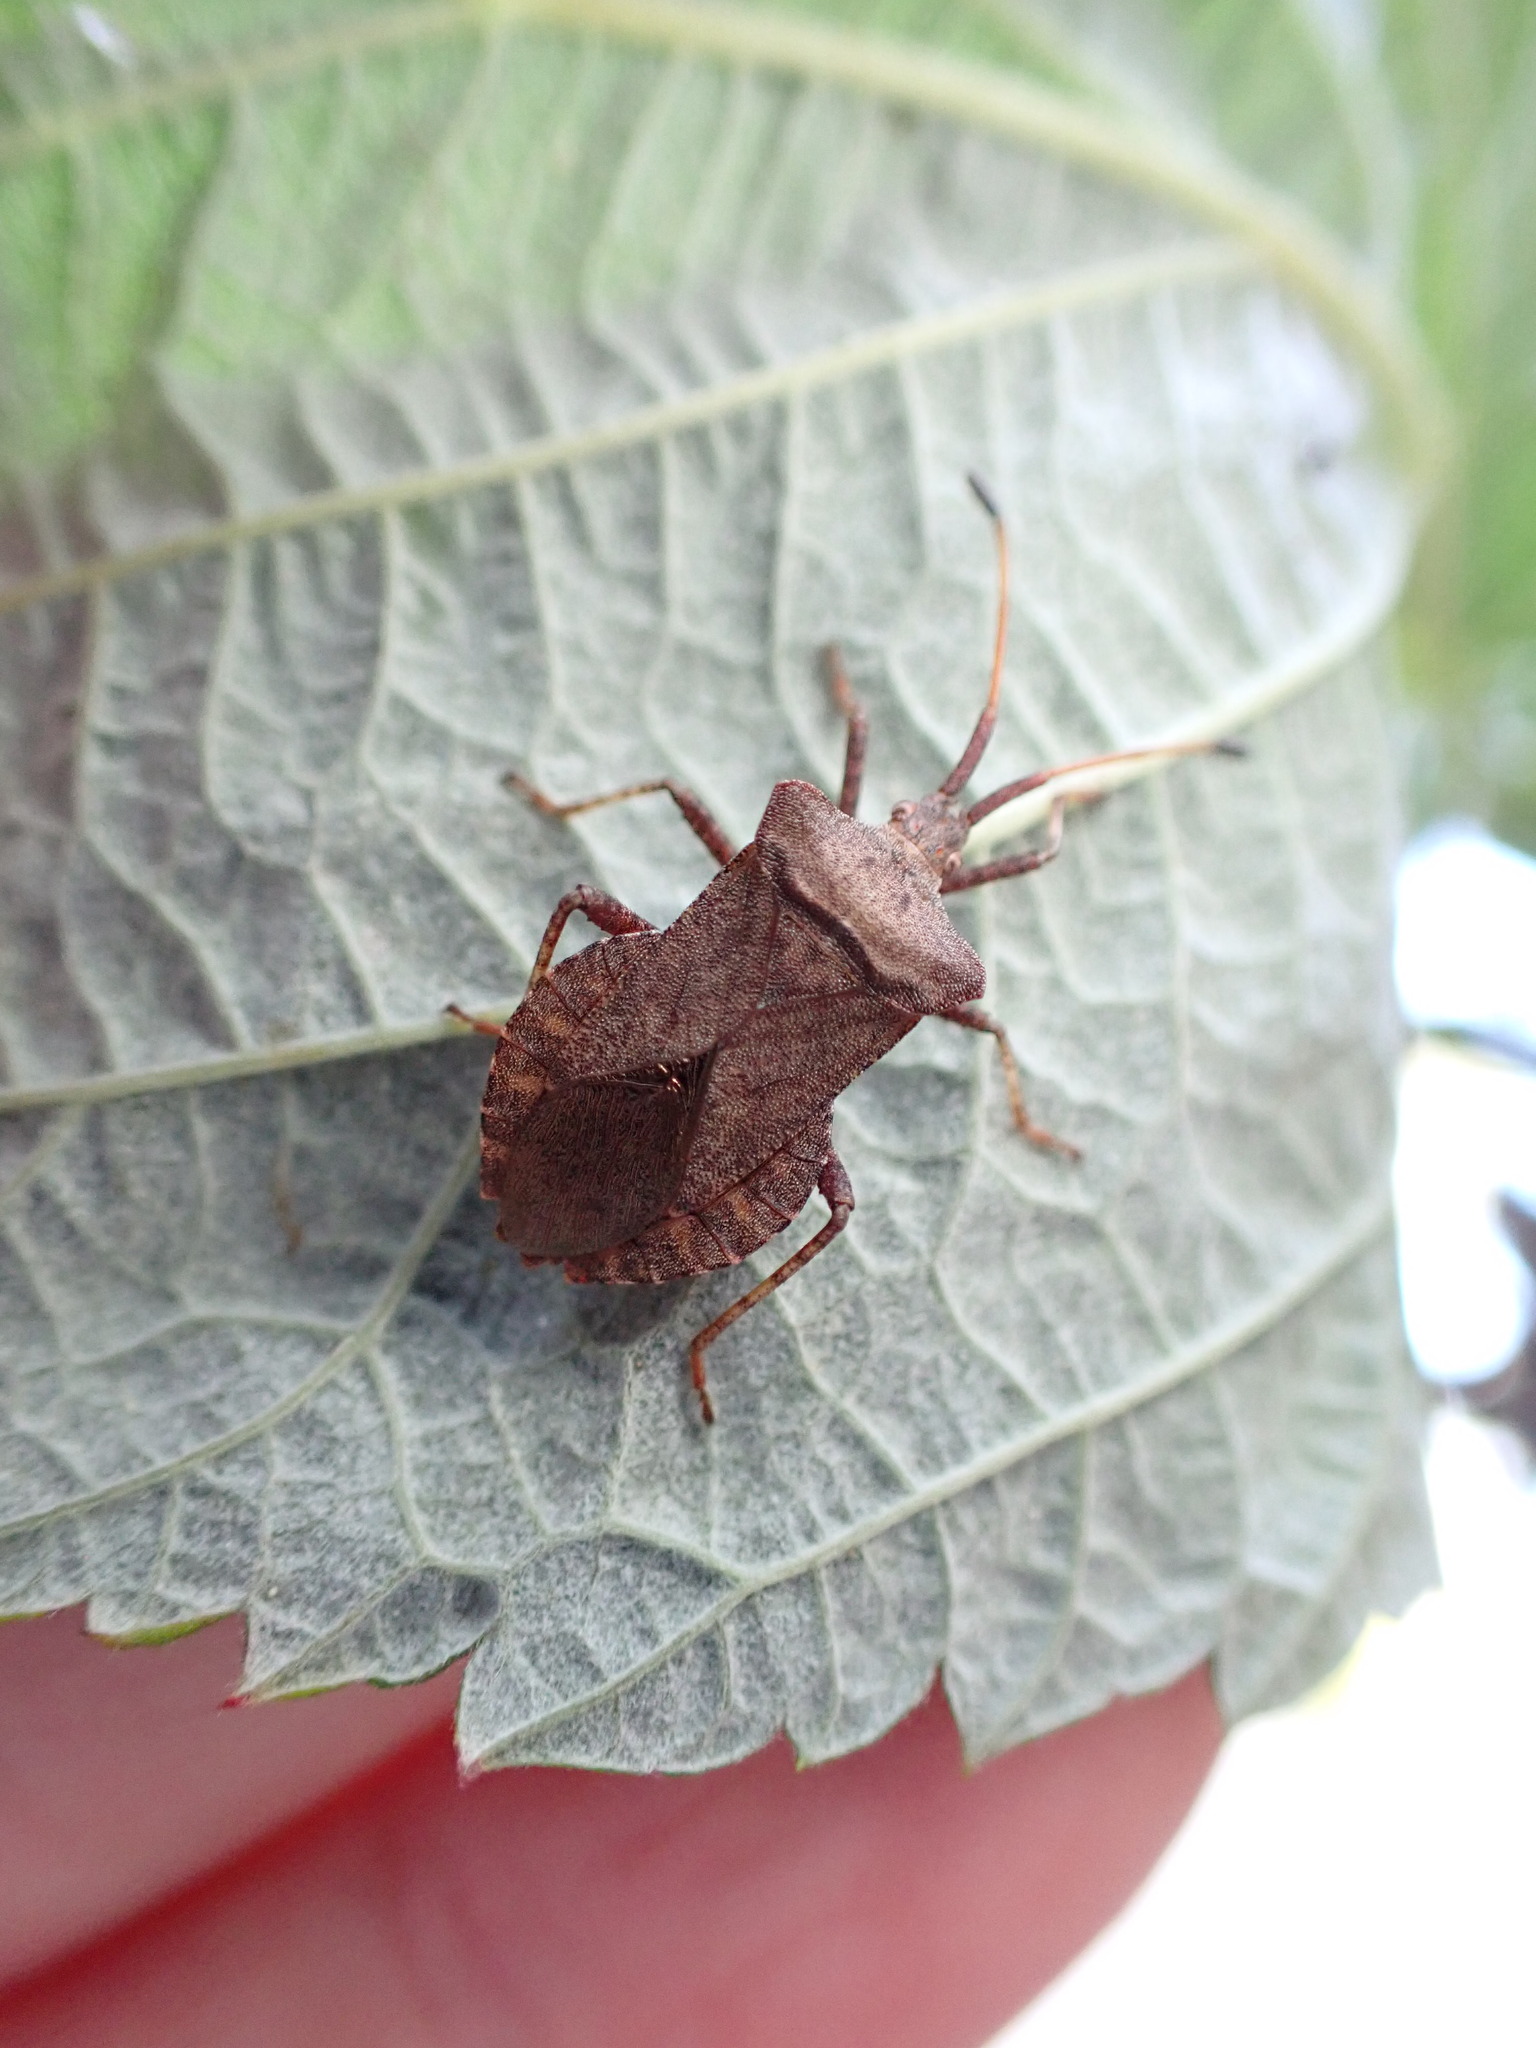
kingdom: Animalia
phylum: Arthropoda
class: Insecta
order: Hemiptera
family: Coreidae
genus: Coreus
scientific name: Coreus marginatus
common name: Dock bug
